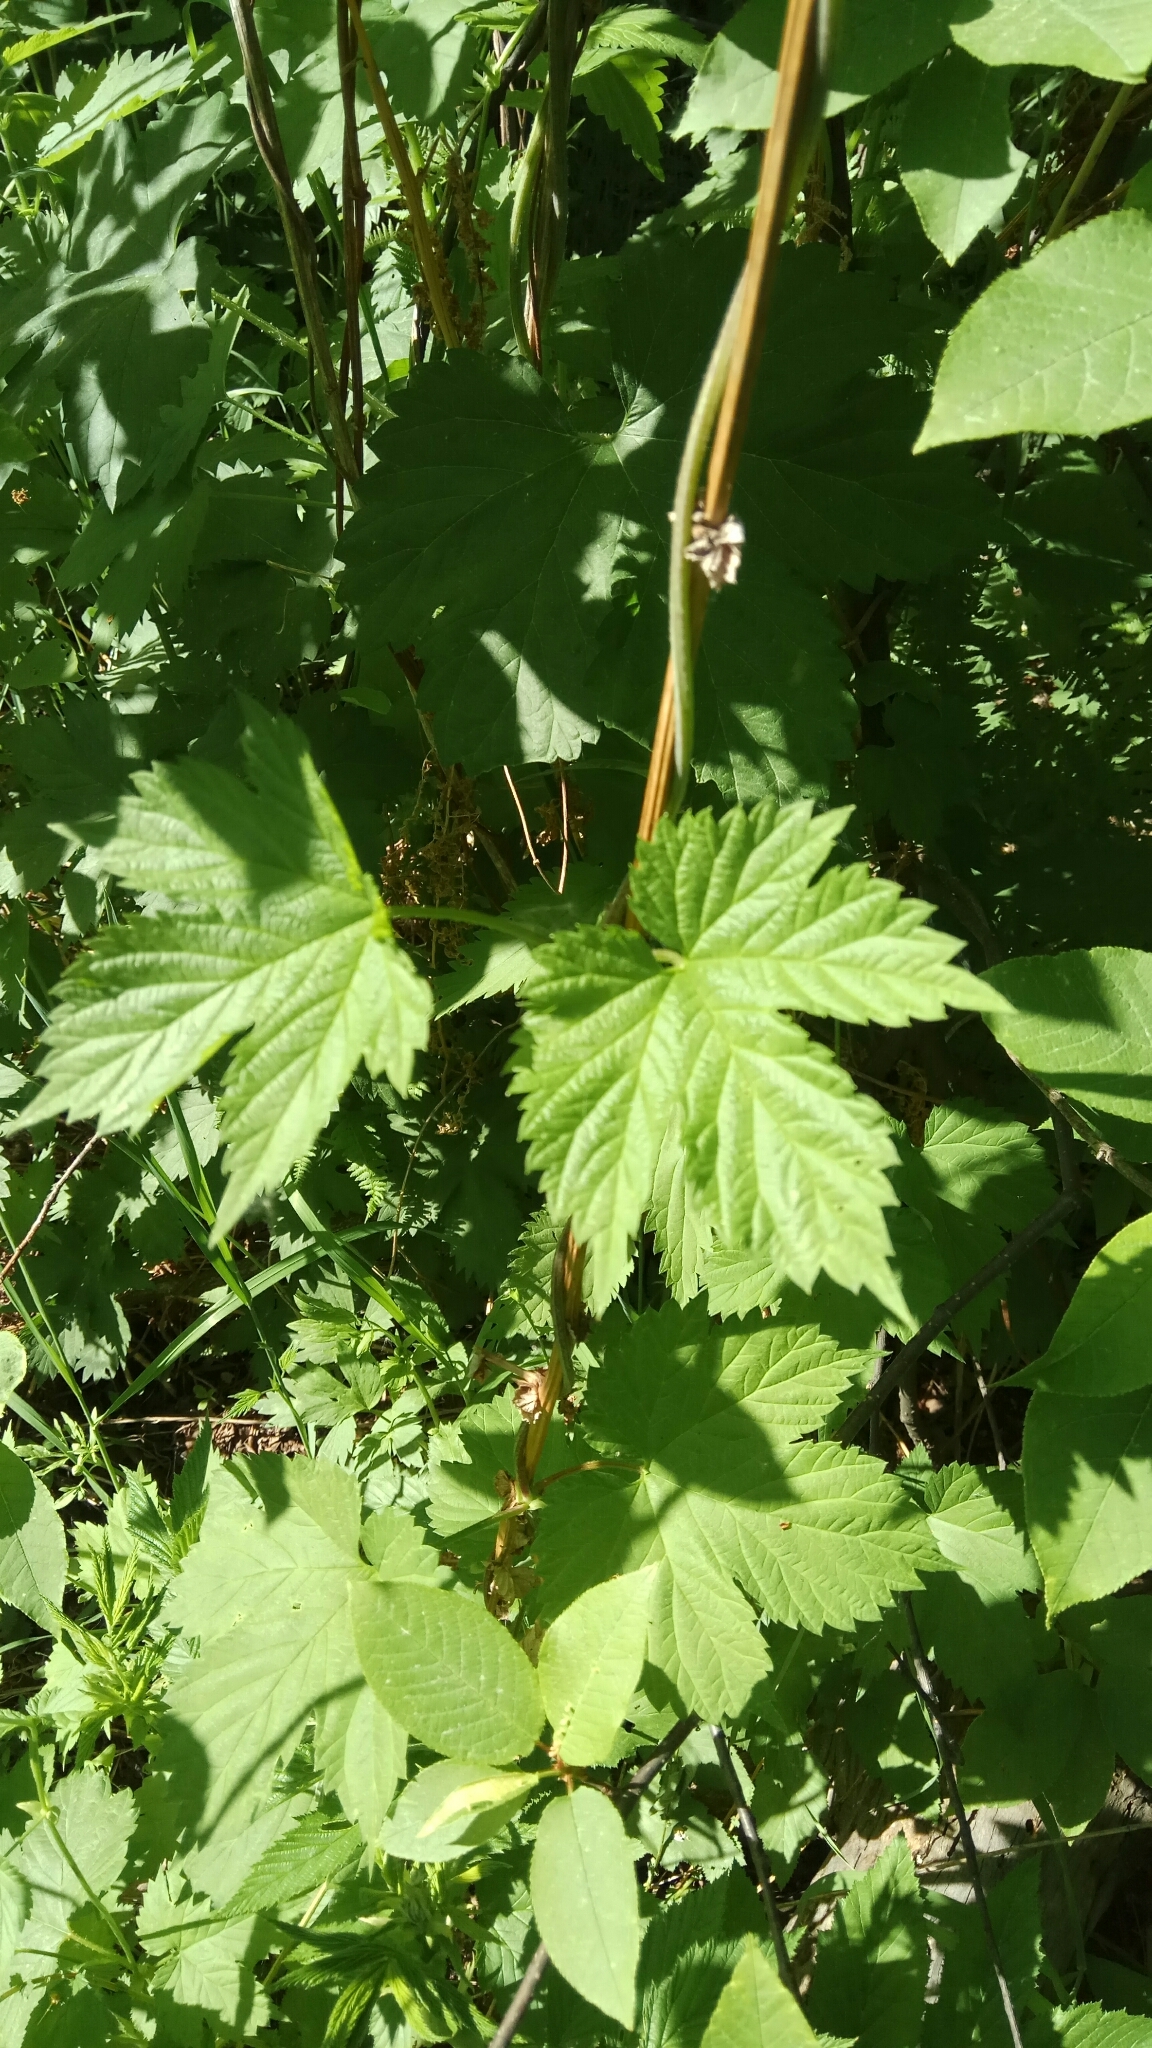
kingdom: Plantae
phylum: Tracheophyta
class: Magnoliopsida
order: Rosales
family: Cannabaceae
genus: Humulus
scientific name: Humulus lupulus
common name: Hop
